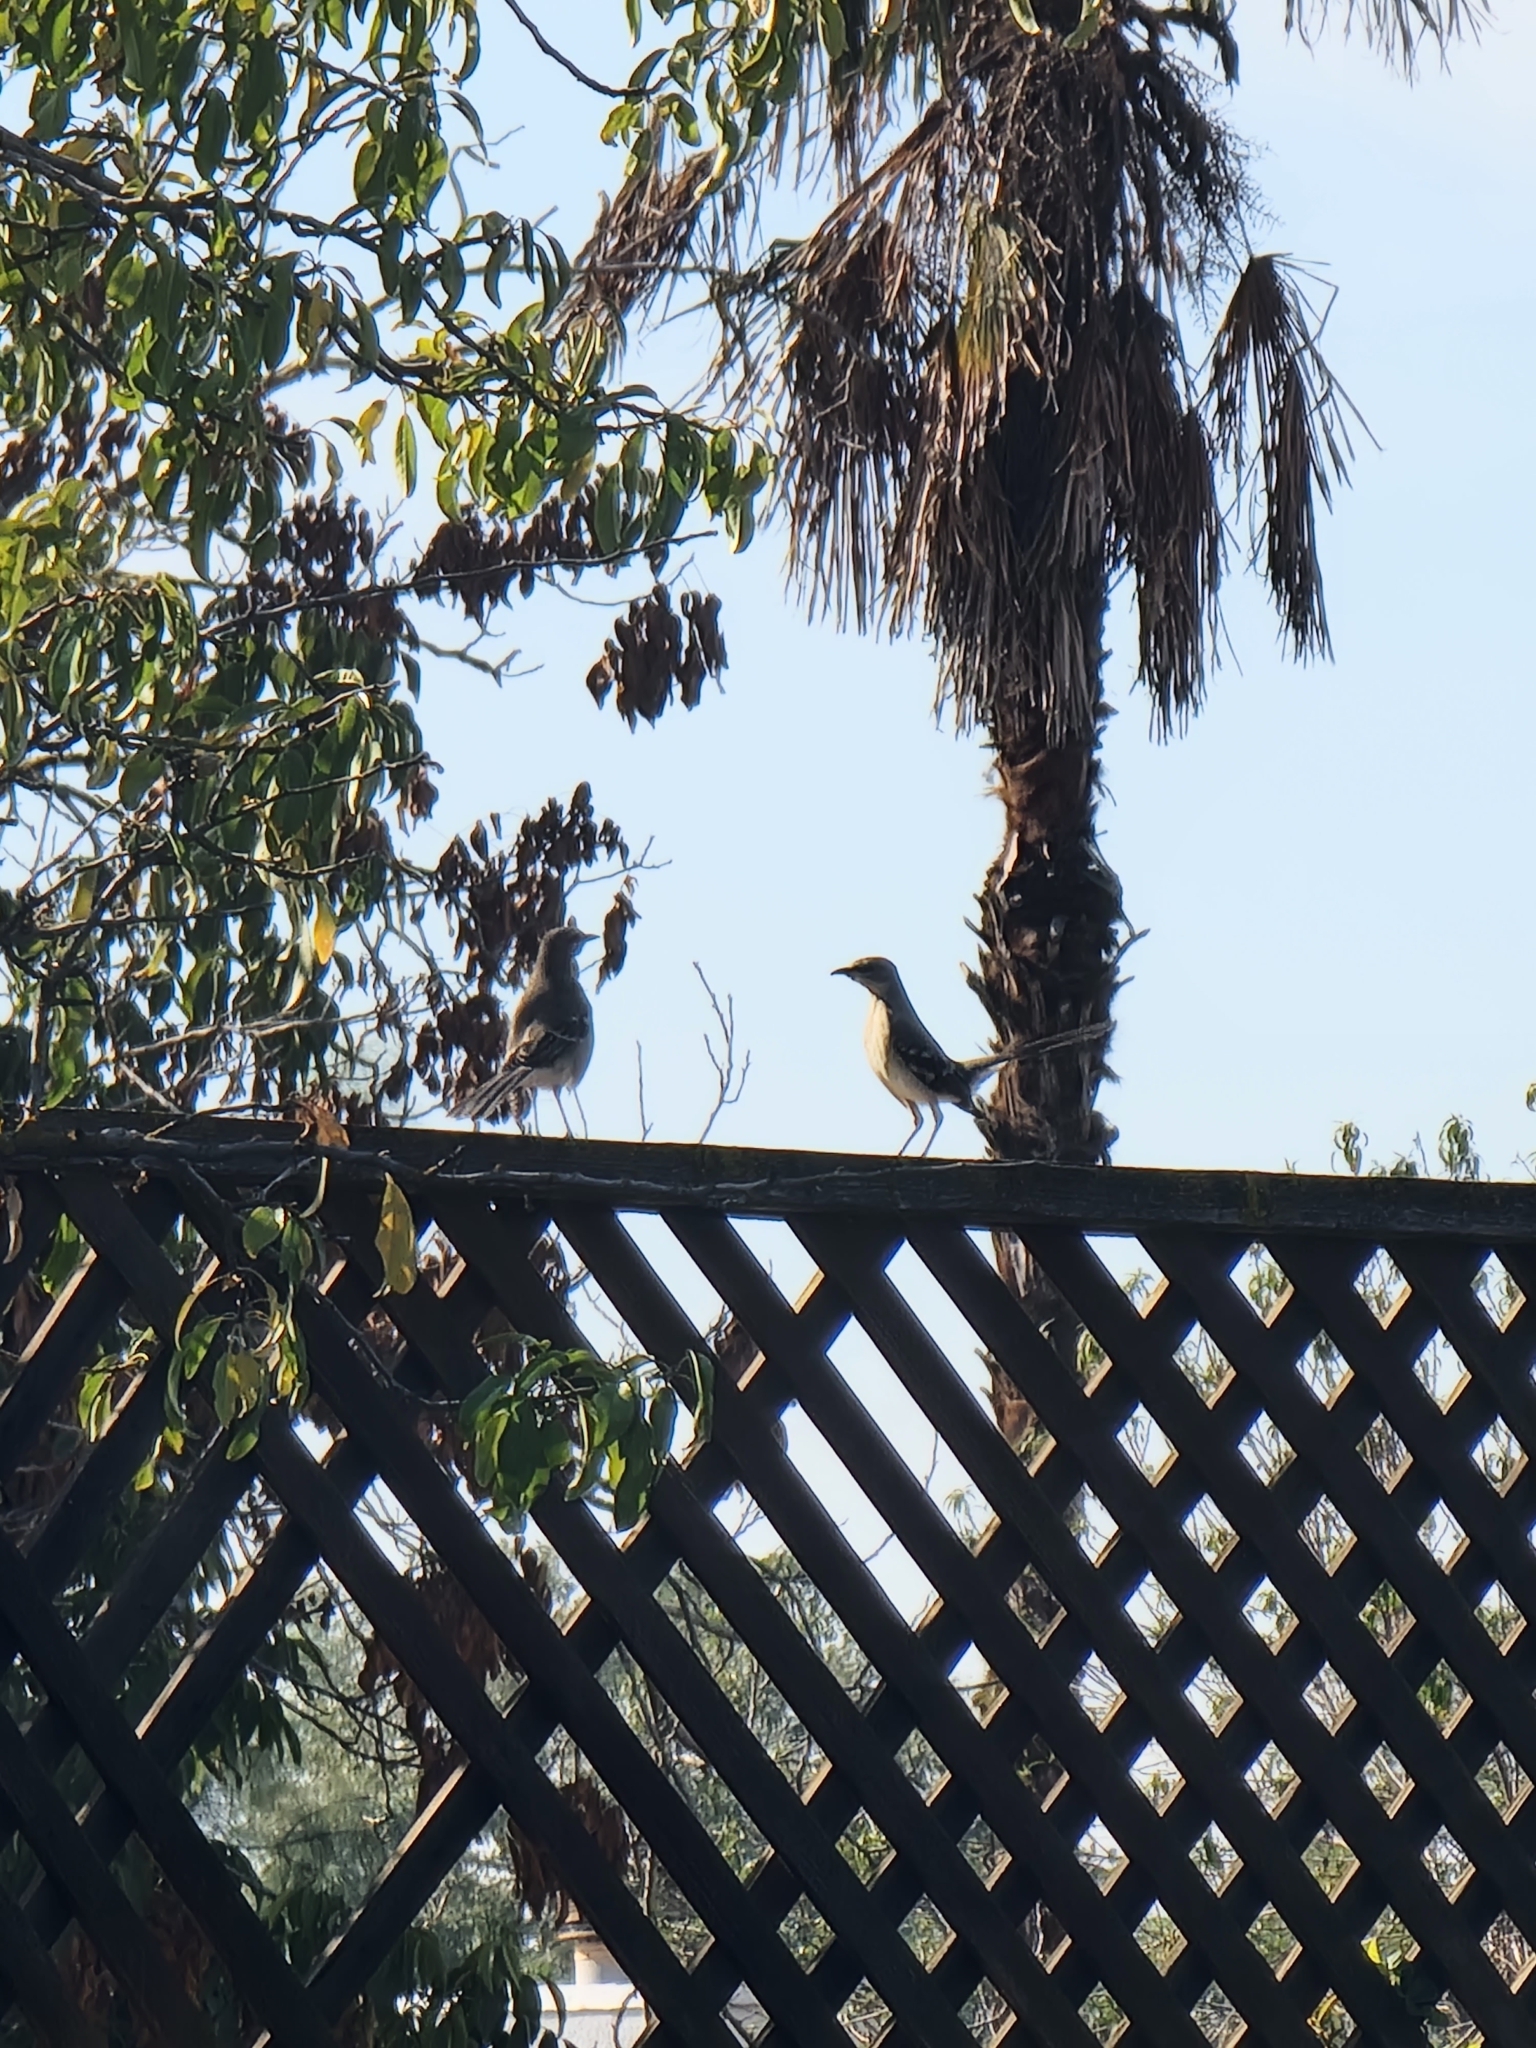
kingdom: Animalia
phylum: Chordata
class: Aves
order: Passeriformes
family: Mimidae
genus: Mimus
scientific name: Mimus polyglottos
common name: Northern mockingbird
